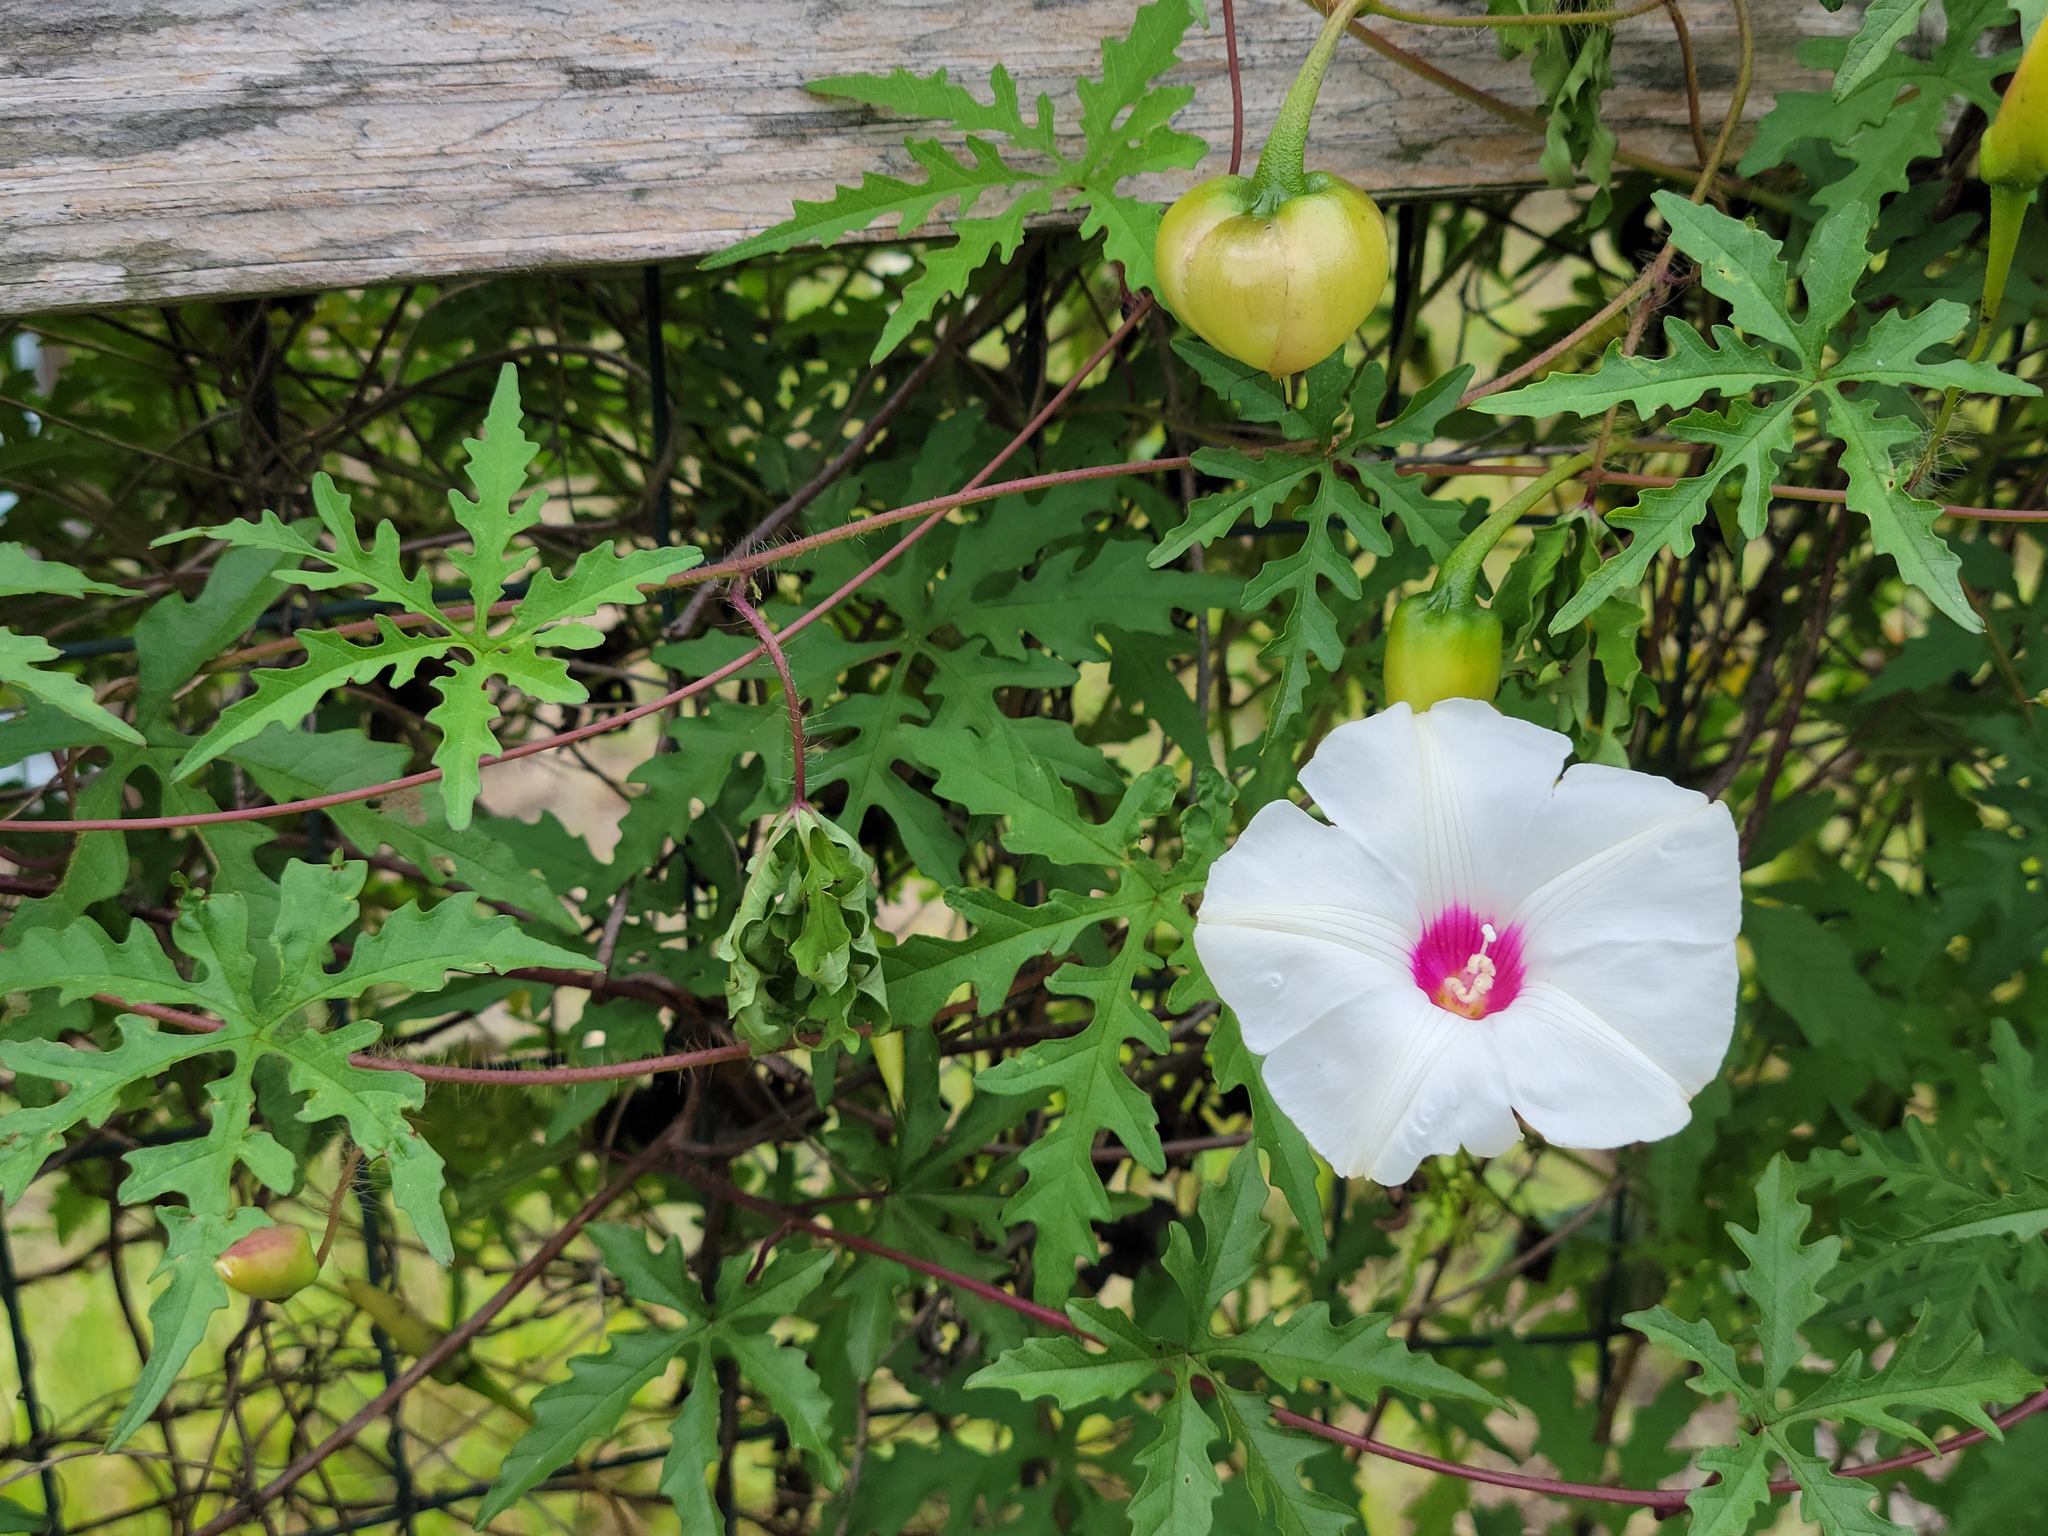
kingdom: Plantae
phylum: Tracheophyta
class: Magnoliopsida
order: Solanales
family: Convolvulaceae
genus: Distimake
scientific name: Distimake dissectus
